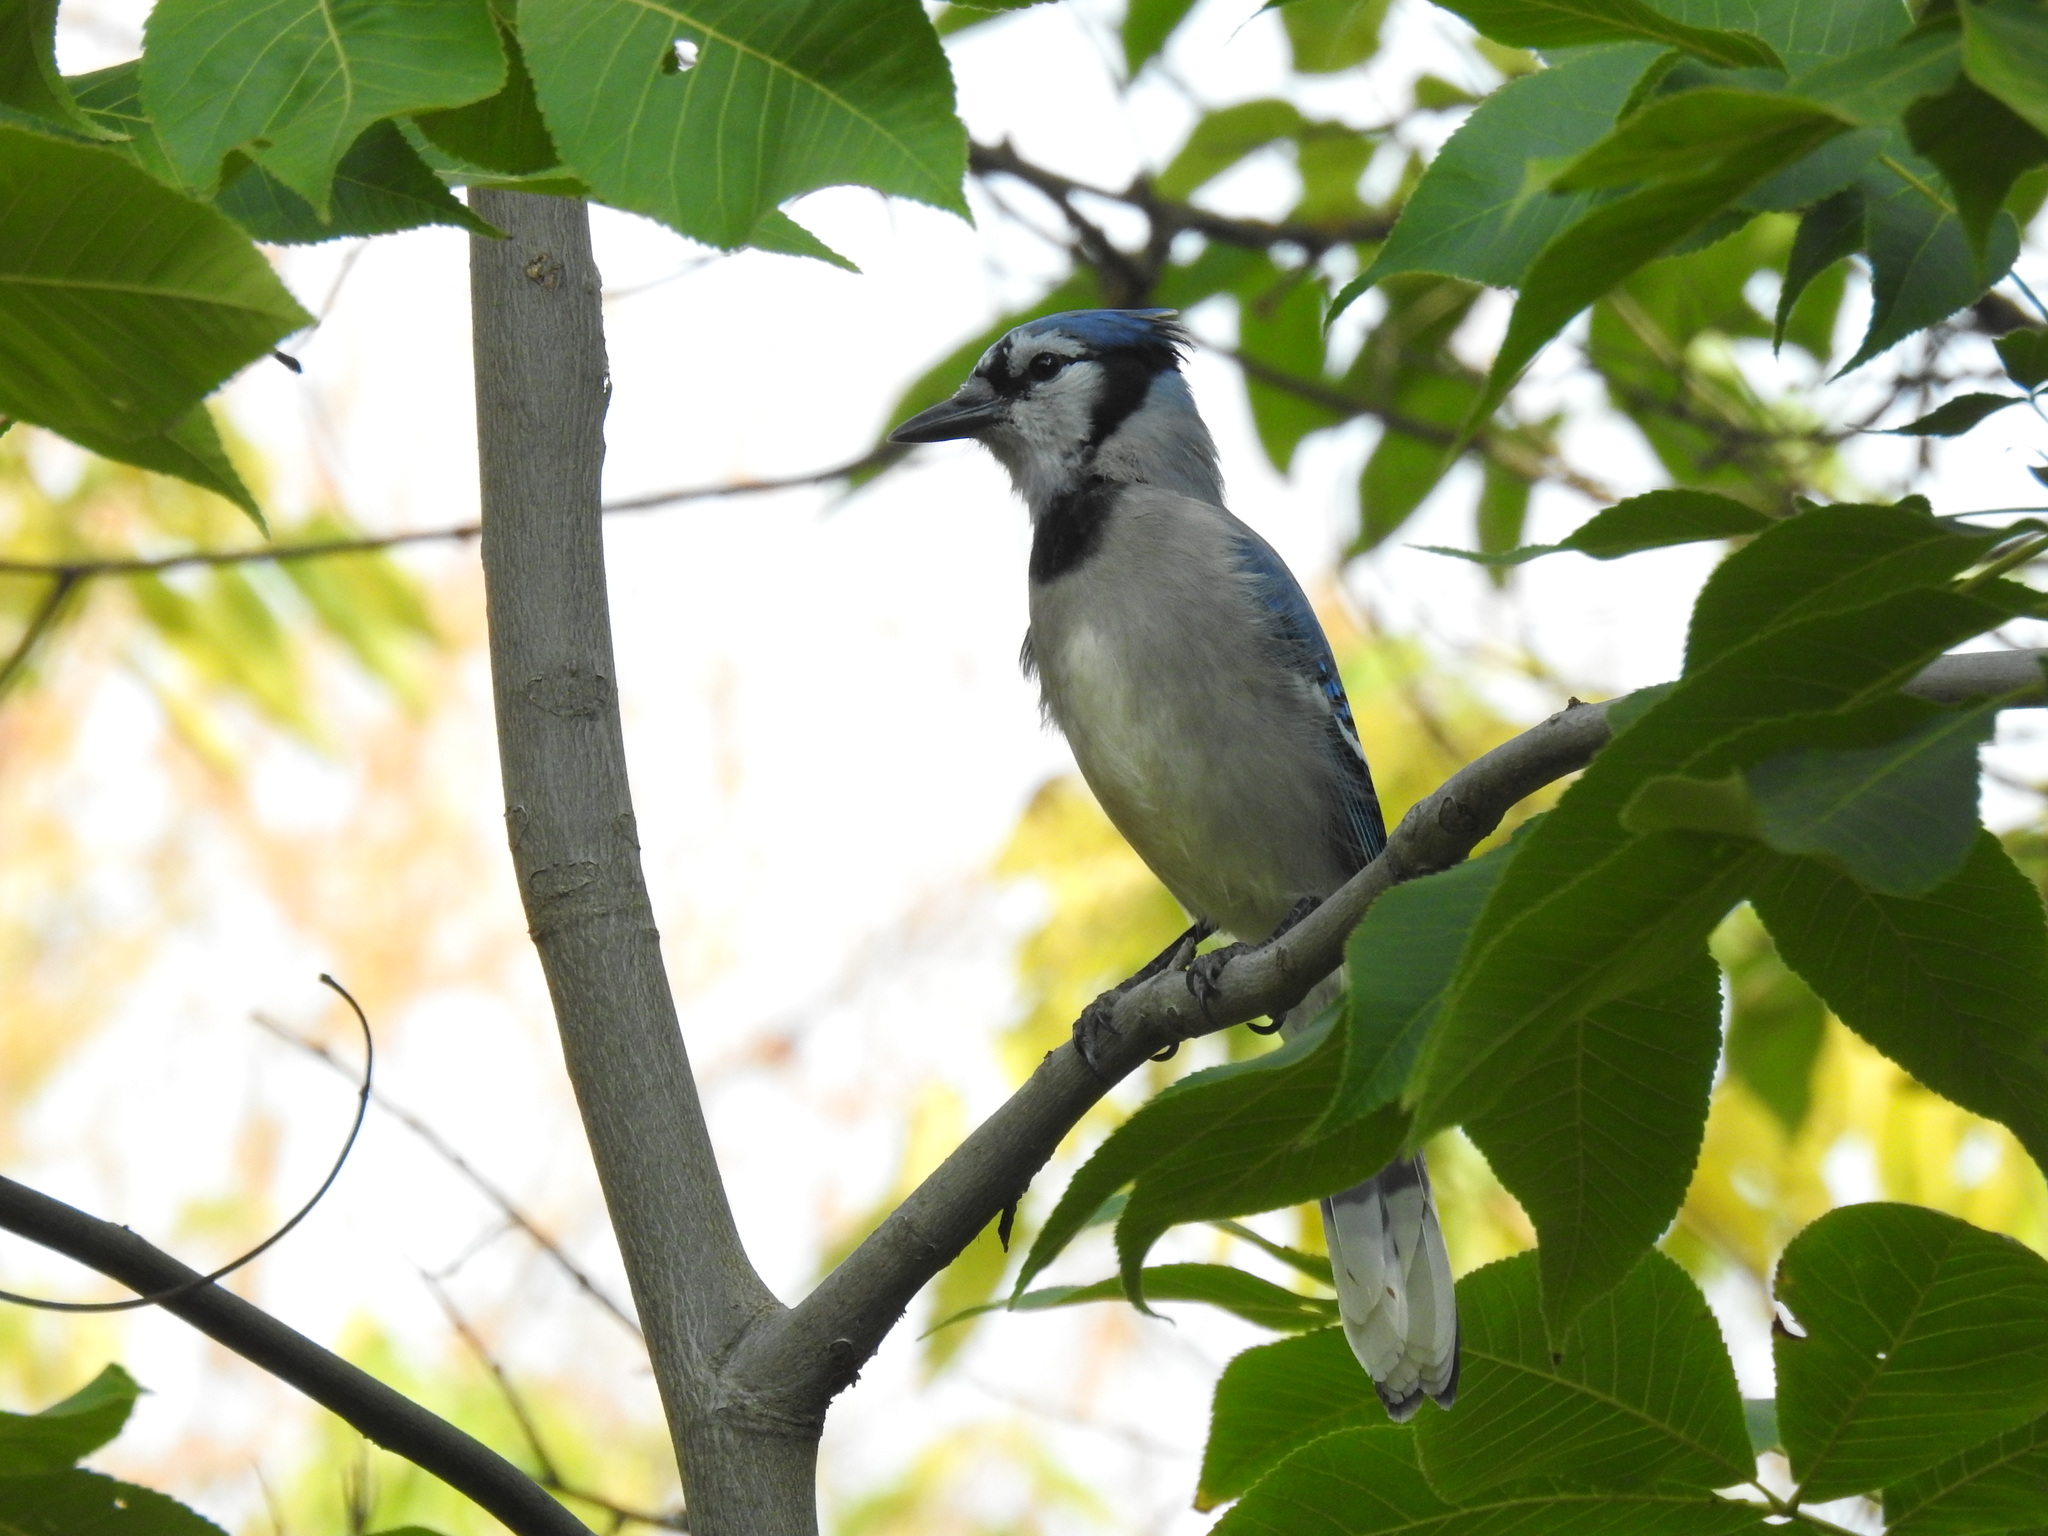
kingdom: Animalia
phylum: Chordata
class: Aves
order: Passeriformes
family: Corvidae
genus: Cyanocitta
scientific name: Cyanocitta cristata
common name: Blue jay
